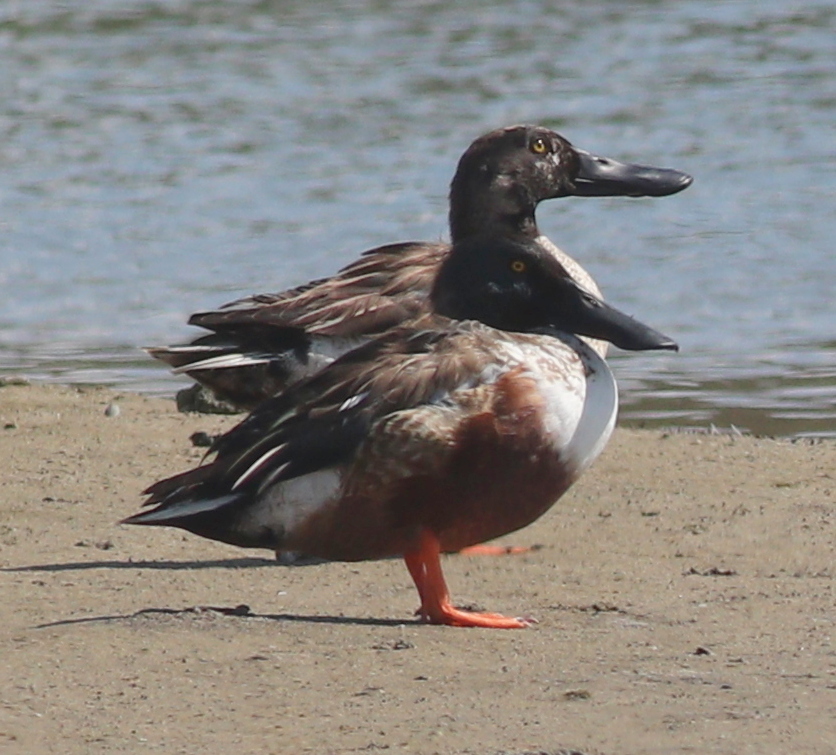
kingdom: Animalia
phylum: Chordata
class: Aves
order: Anseriformes
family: Anatidae
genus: Spatula
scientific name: Spatula clypeata
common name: Northern shoveler
